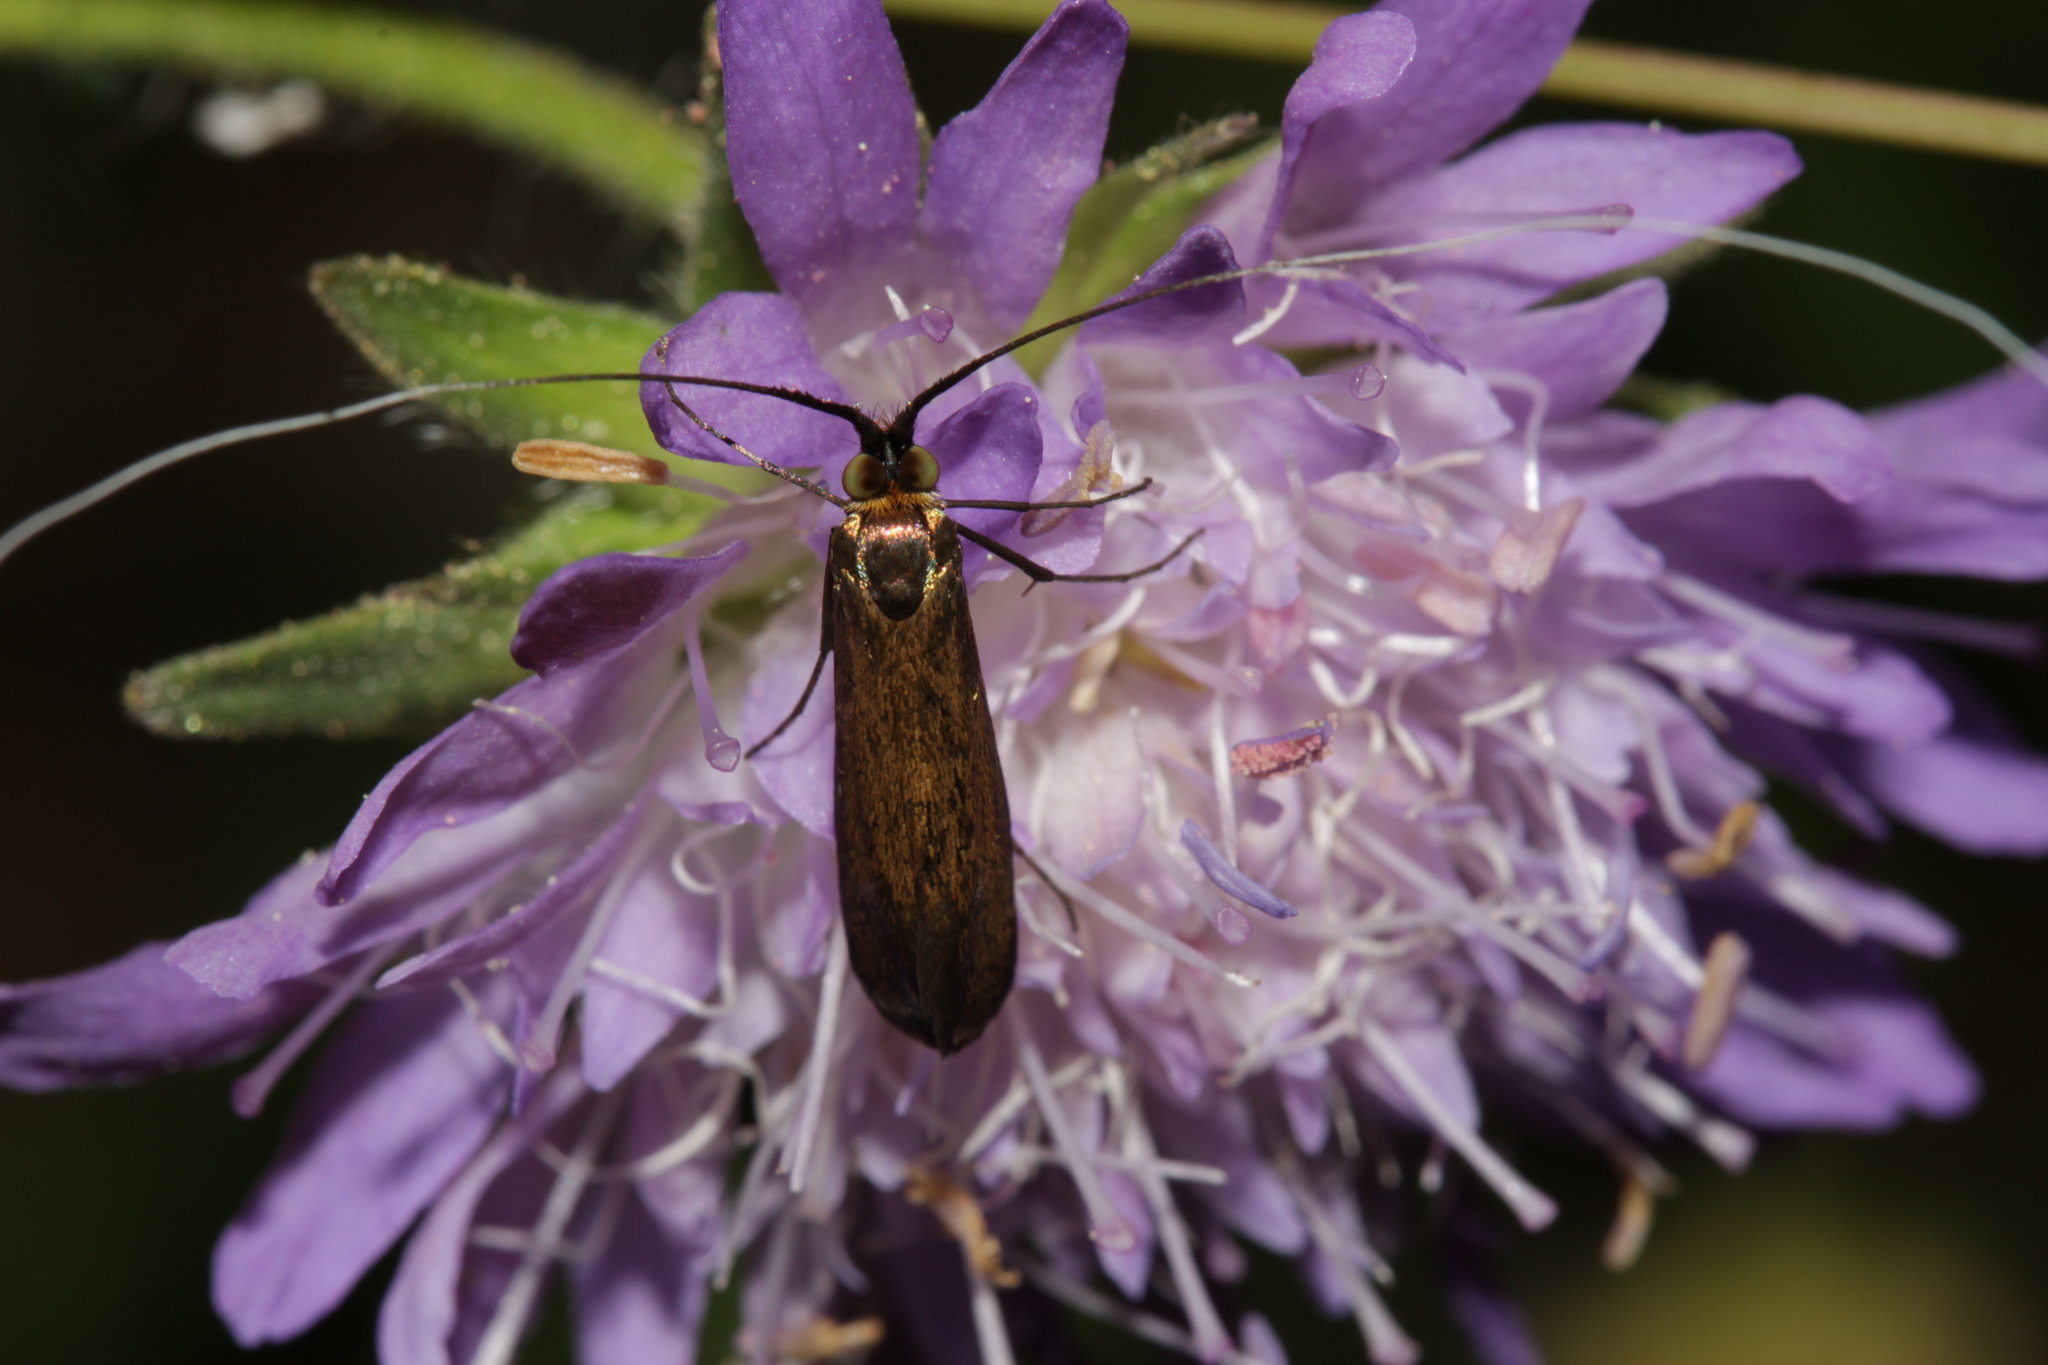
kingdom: Animalia
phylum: Arthropoda
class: Insecta
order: Lepidoptera
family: Adelidae
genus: Nemophora
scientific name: Nemophora metallica
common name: Brassy long-horn
